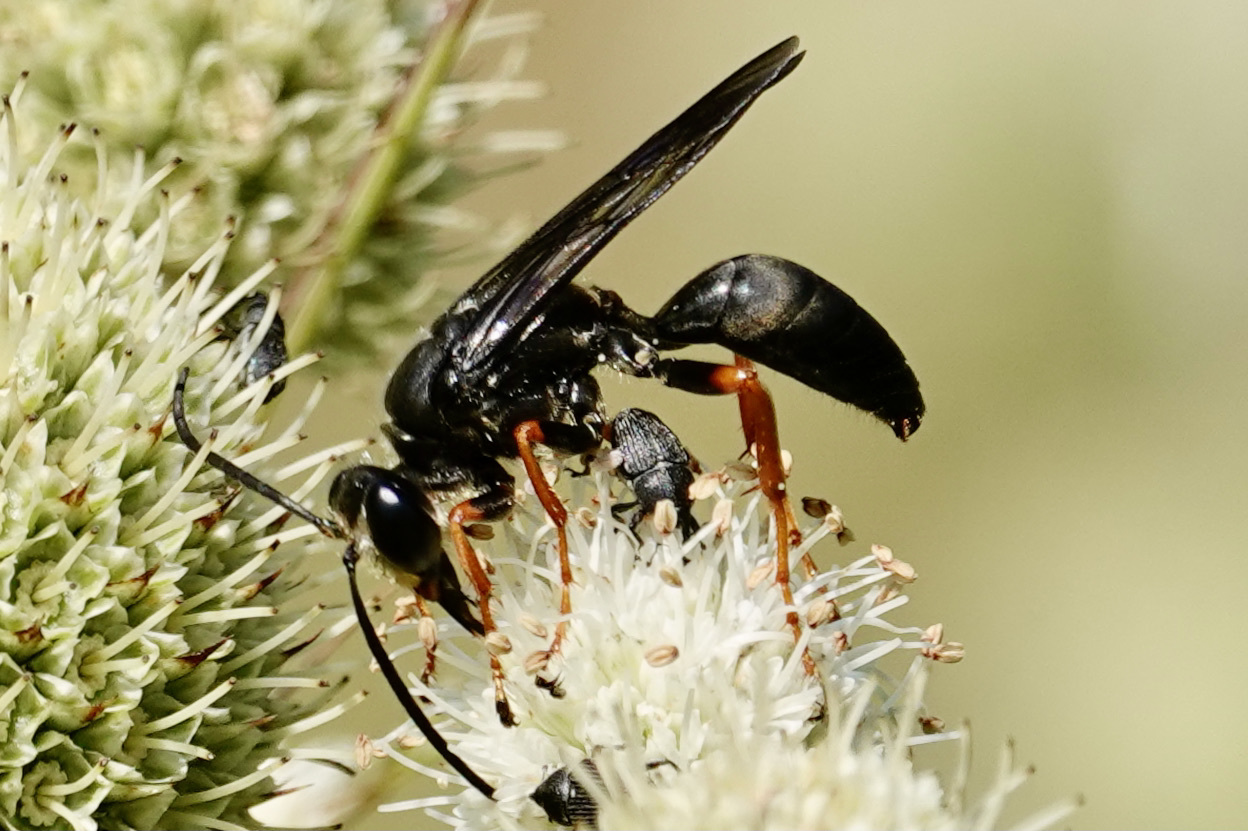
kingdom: Animalia
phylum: Arthropoda
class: Insecta
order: Hymenoptera
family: Sphecidae
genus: Sphex
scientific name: Sphex nudus
